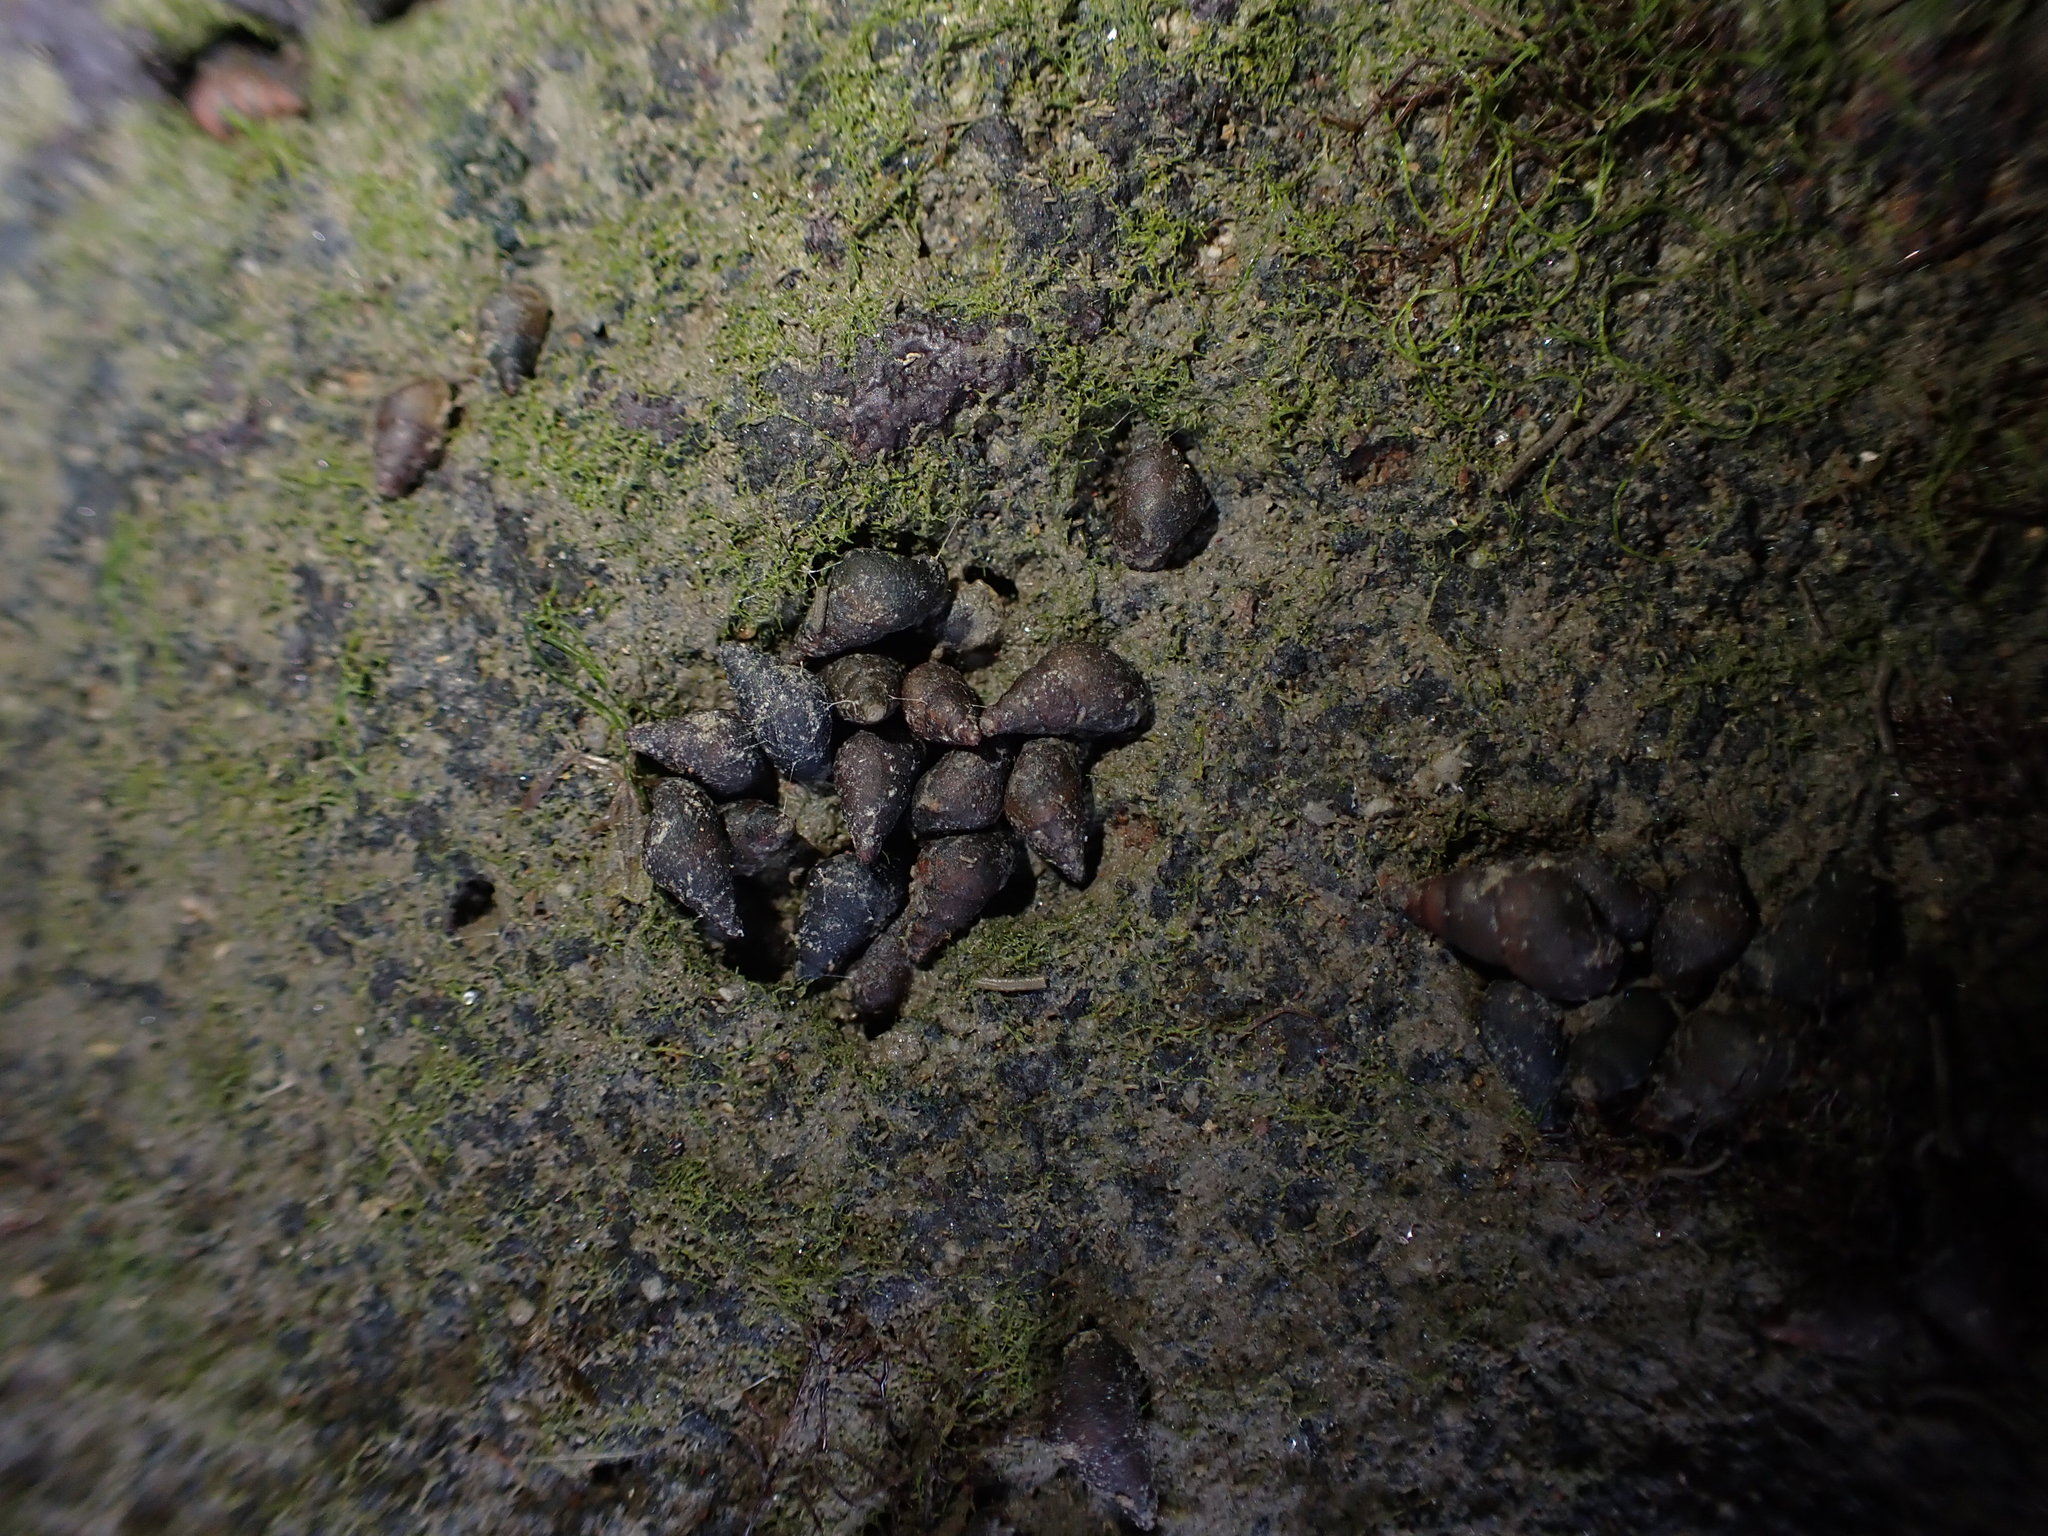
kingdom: Animalia
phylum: Mollusca
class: Gastropoda
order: Littorinimorpha
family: Tateidae
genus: Potamopyrgus
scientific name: Potamopyrgus estuarinus
